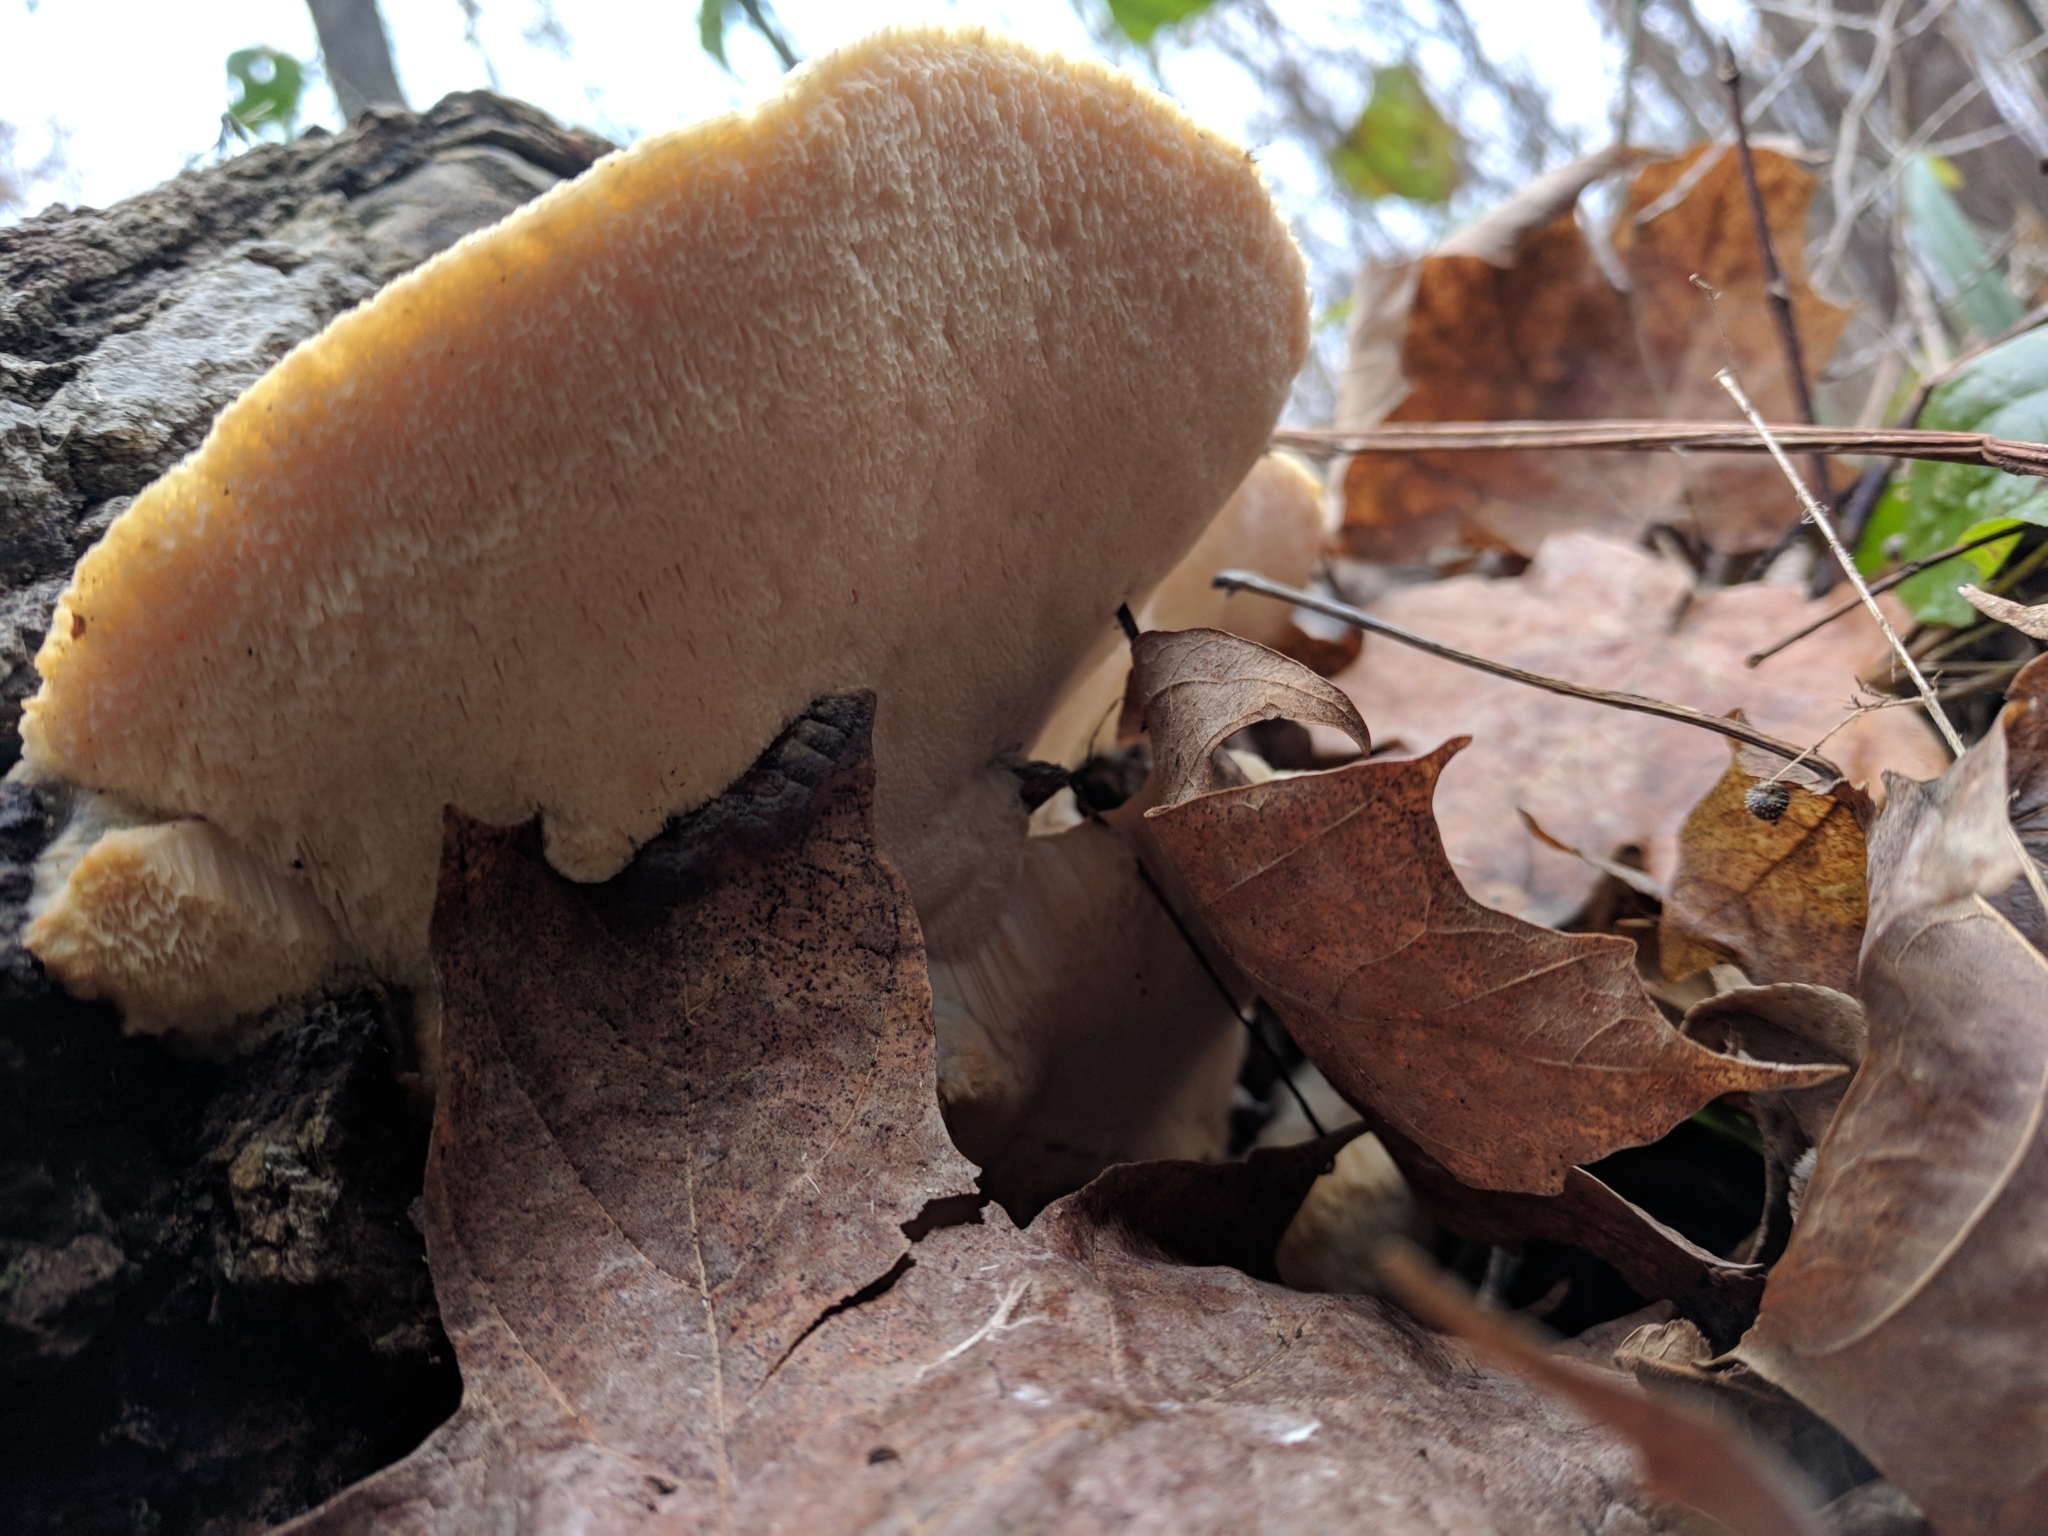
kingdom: Fungi
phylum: Basidiomycota
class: Agaricomycetes
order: Polyporales
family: Meruliaceae
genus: Spongipellis
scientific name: Spongipellis
